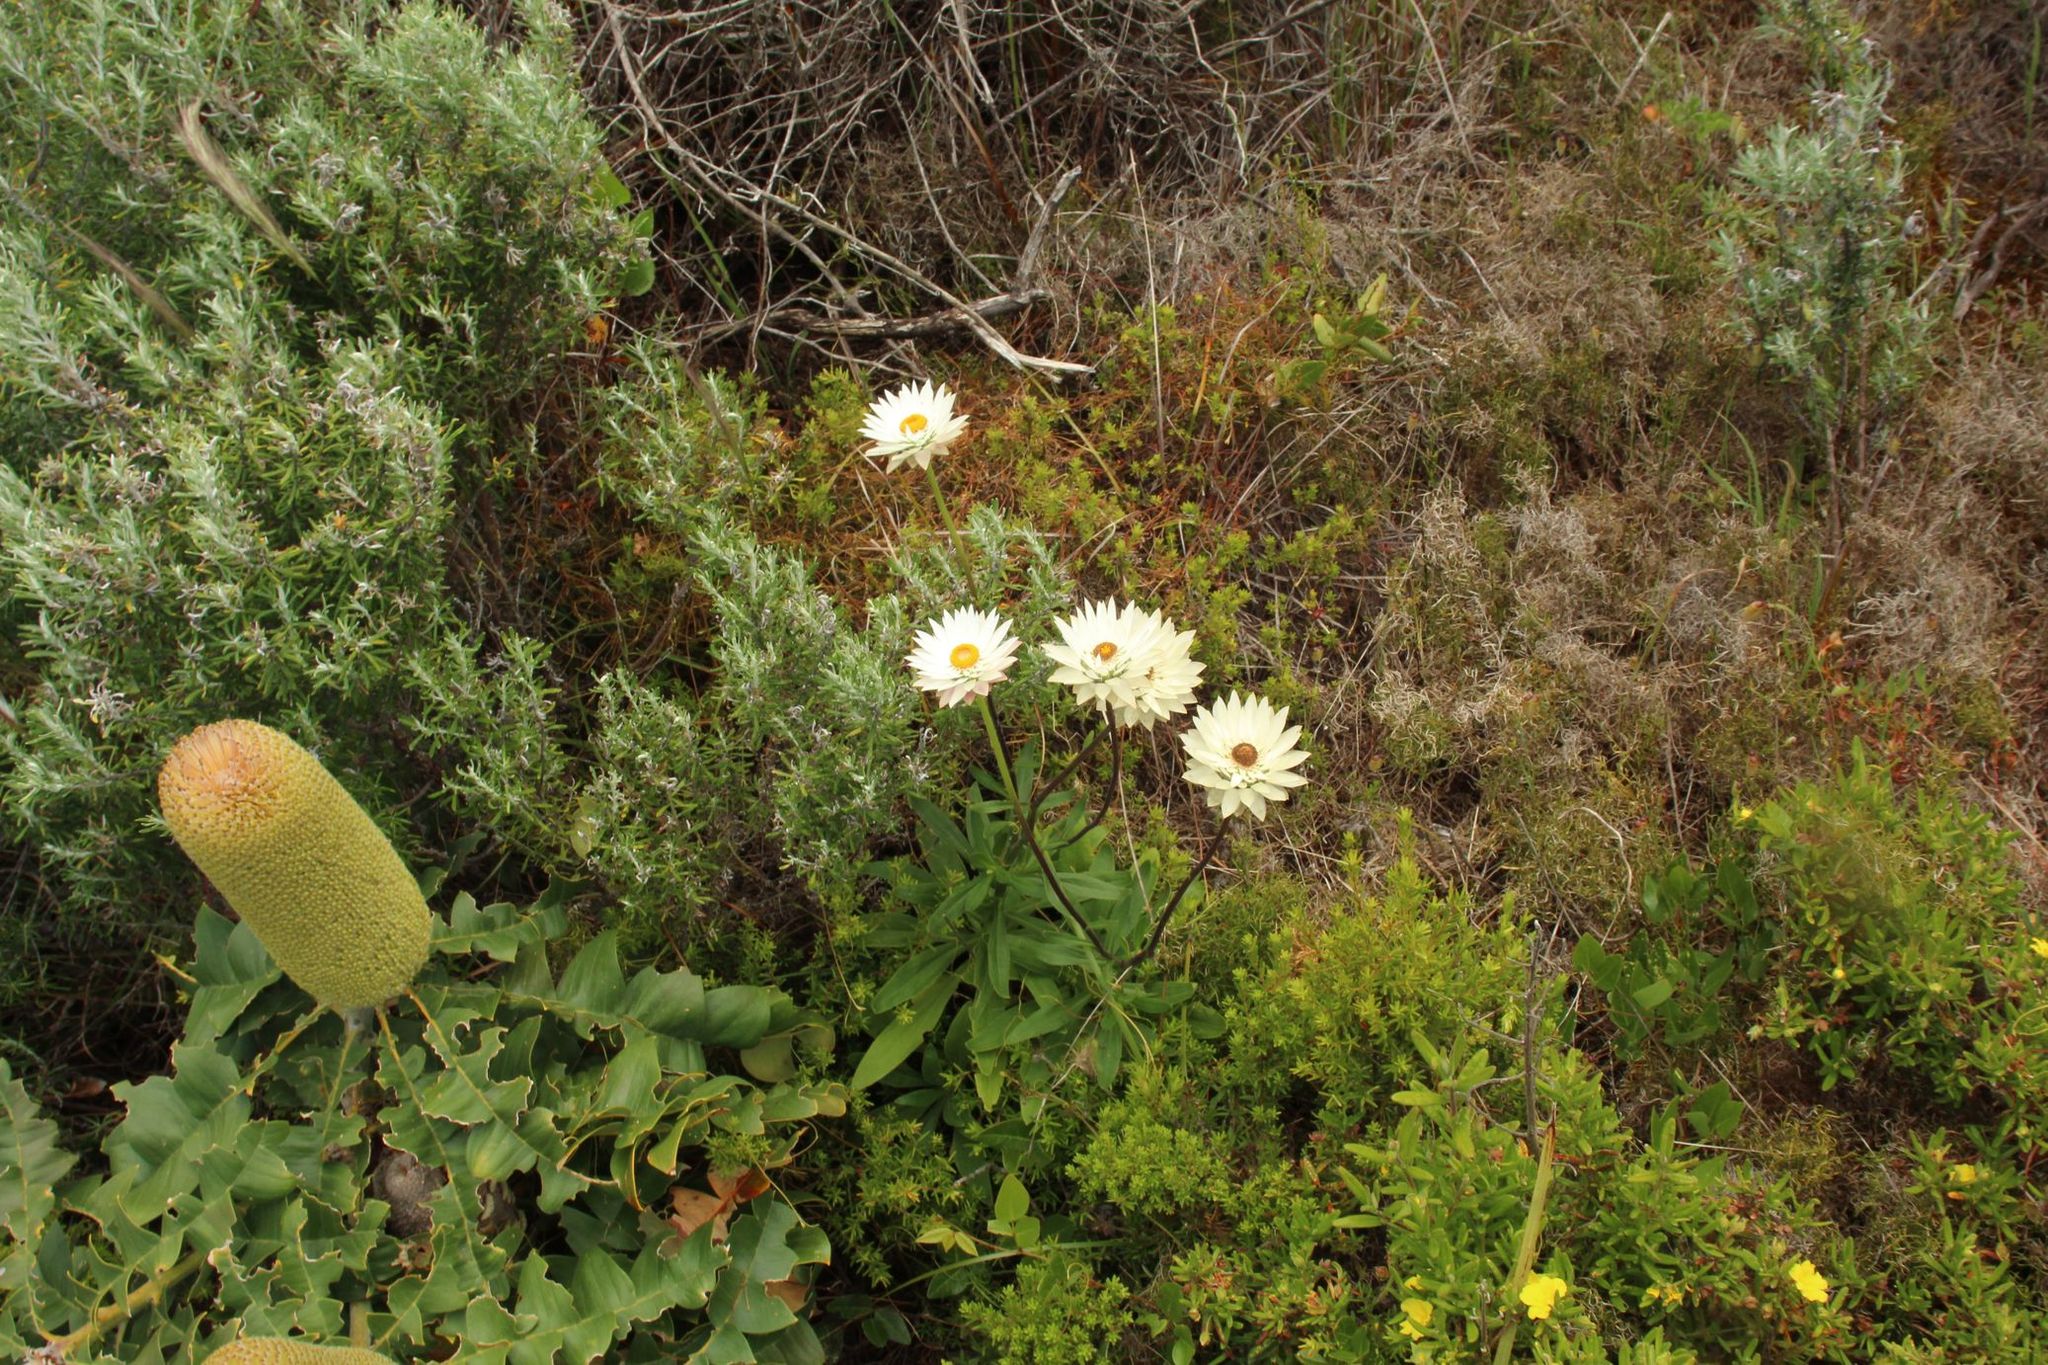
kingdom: Plantae
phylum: Tracheophyta
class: Magnoliopsida
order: Asterales
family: Asteraceae
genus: Xerochrysum
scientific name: Xerochrysum wilsonii
